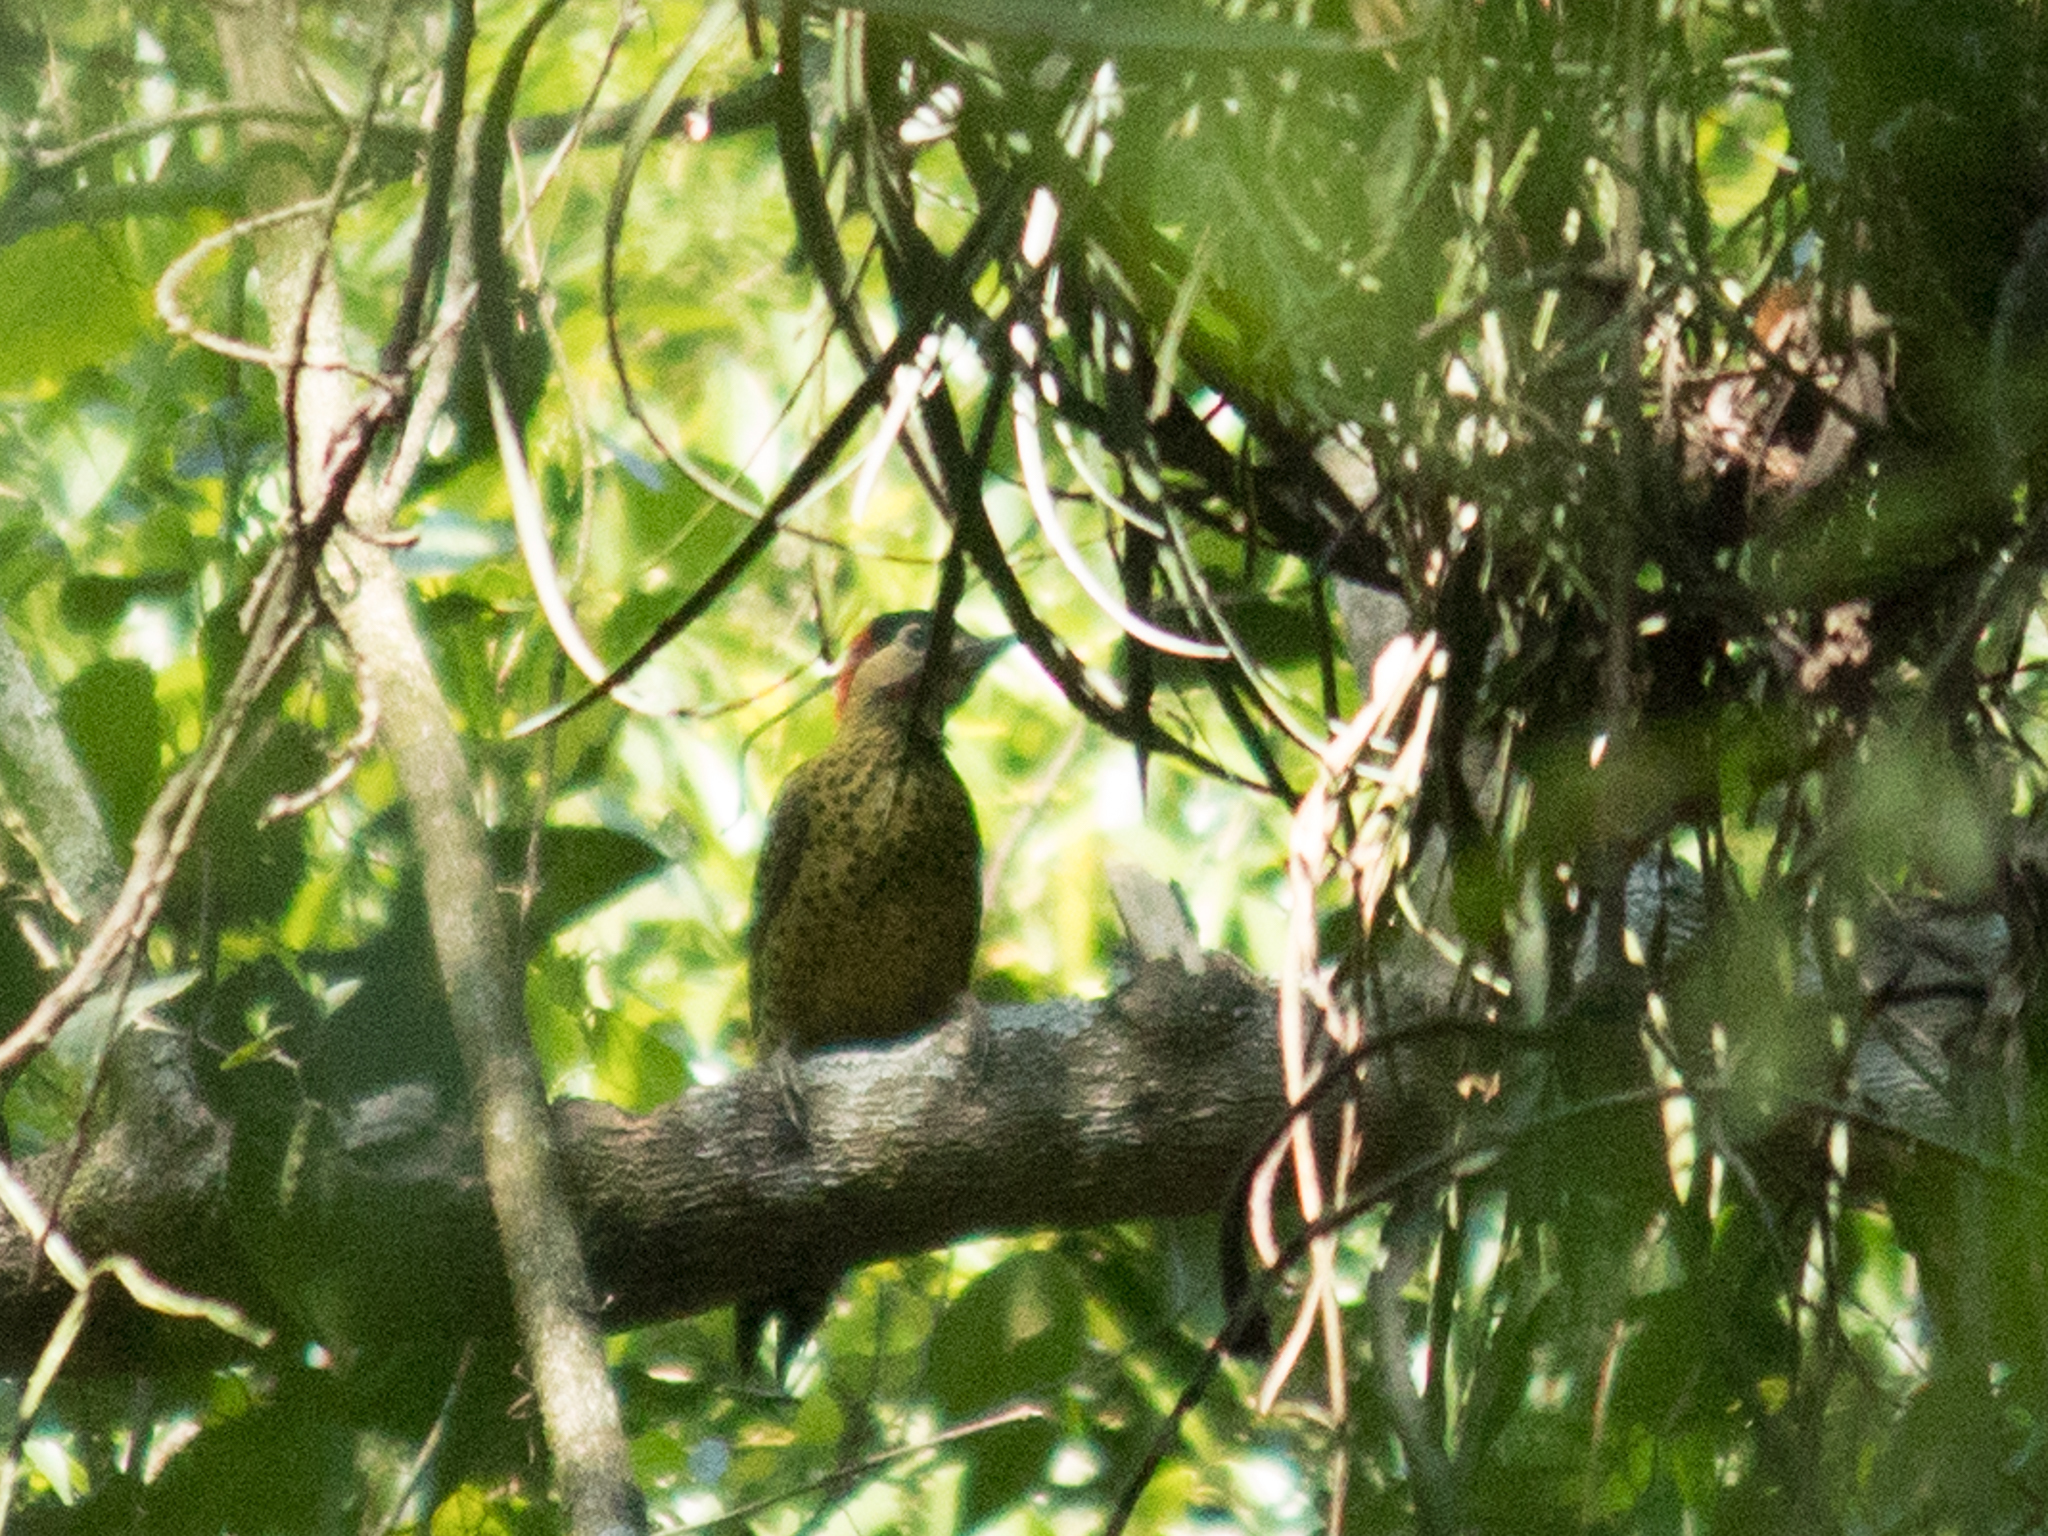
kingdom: Animalia
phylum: Chordata
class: Aves
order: Piciformes
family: Picidae
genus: Colaptes
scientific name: Colaptes melanochloros
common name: Green-barred woodpecker
